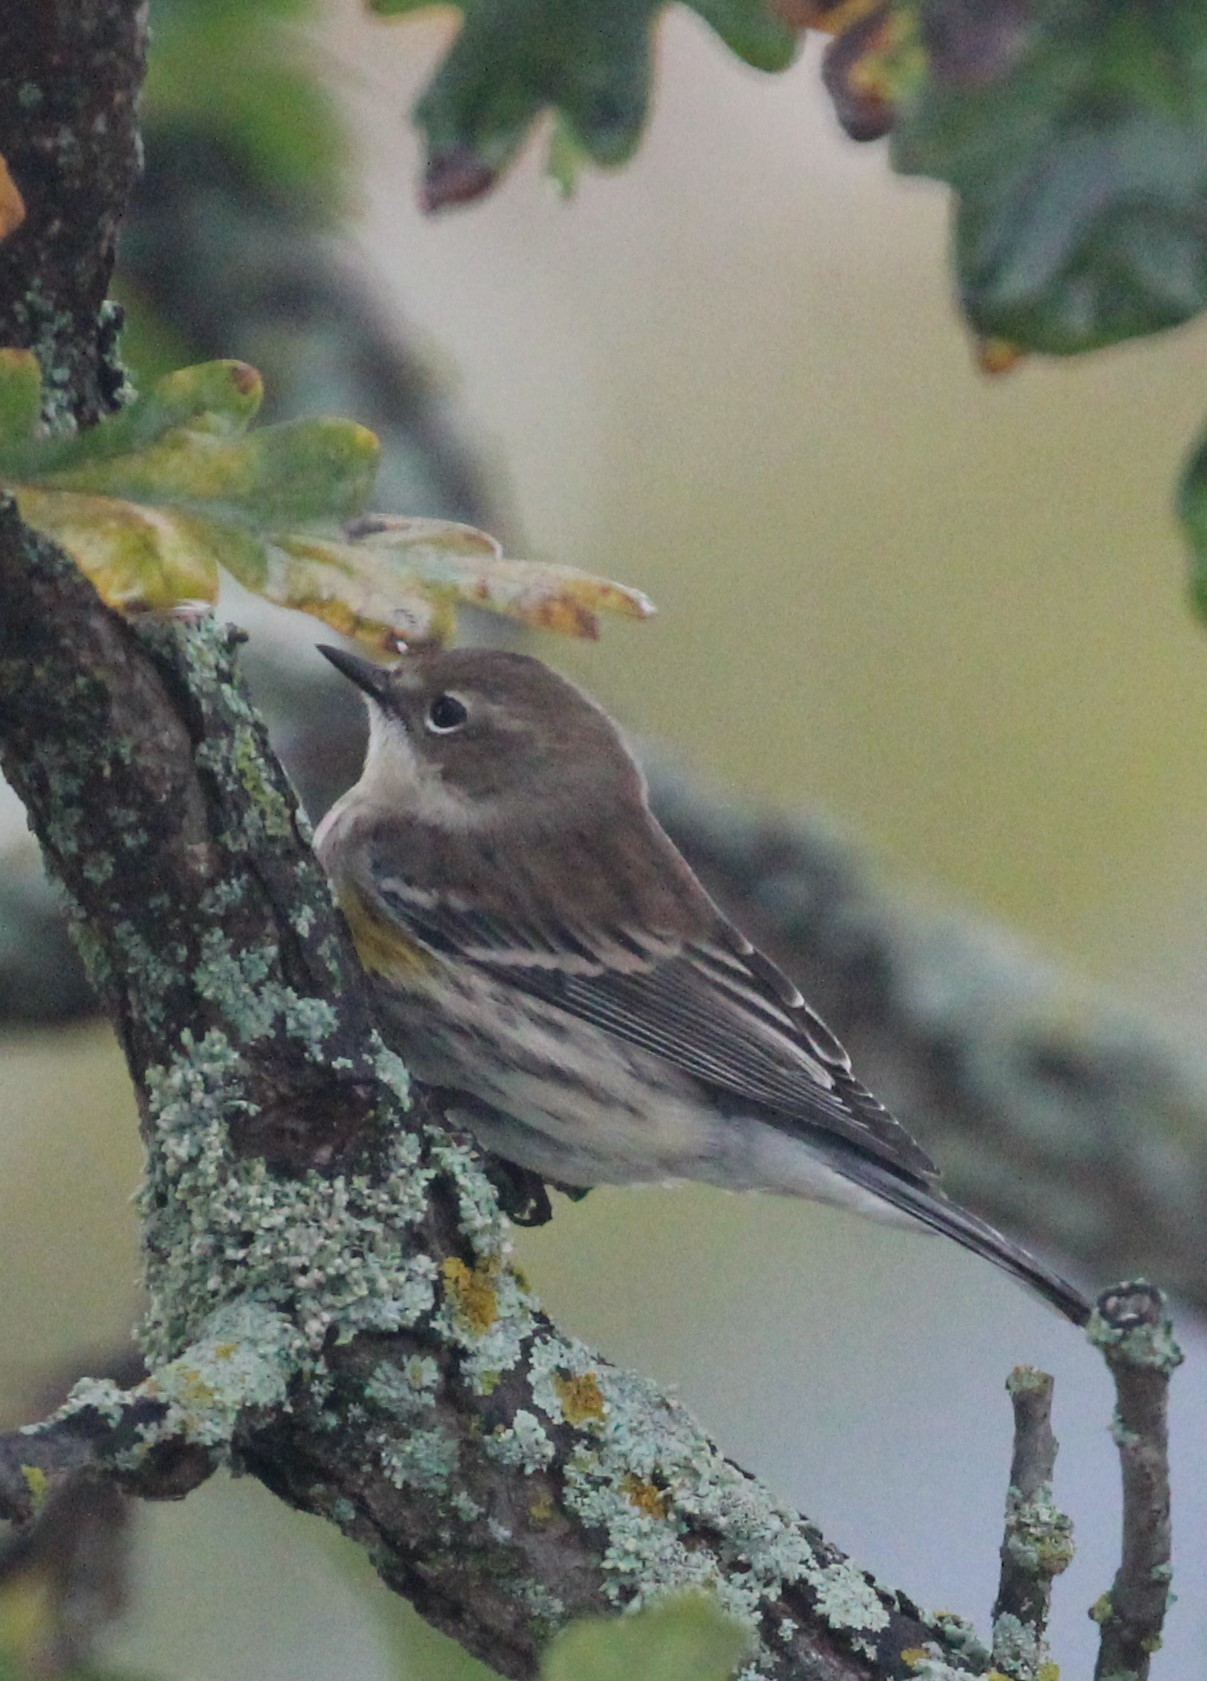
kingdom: Animalia
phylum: Chordata
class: Aves
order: Passeriformes
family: Parulidae
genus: Setophaga
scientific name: Setophaga coronata
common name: Myrtle warbler
